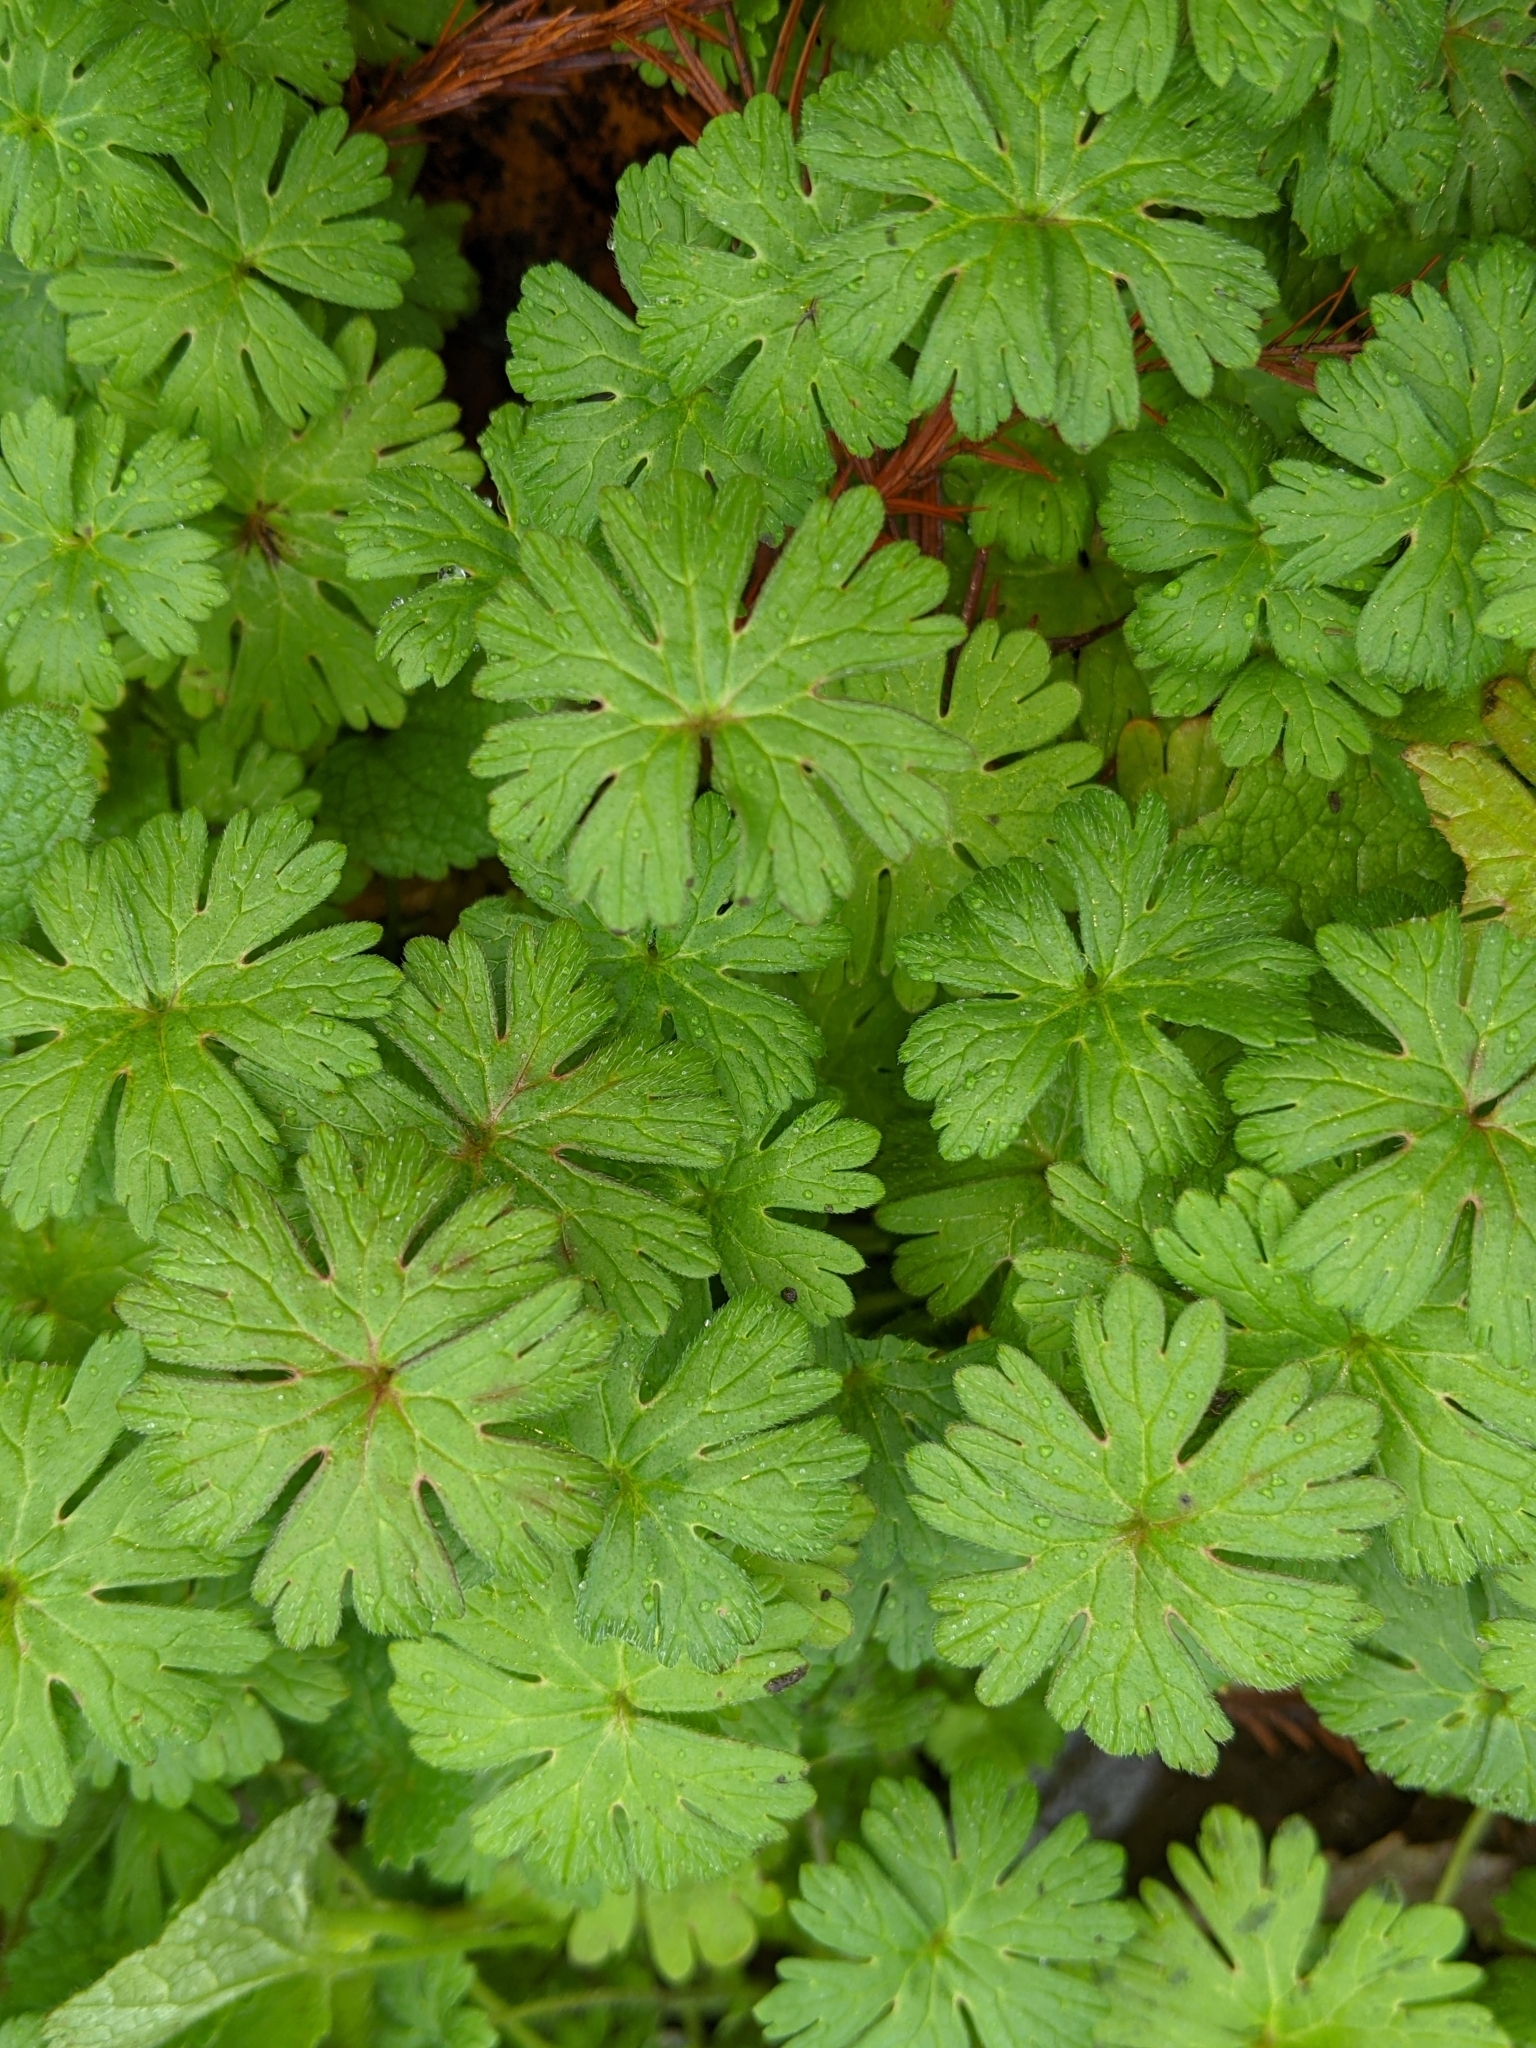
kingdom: Plantae
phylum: Tracheophyta
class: Magnoliopsida
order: Geraniales
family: Geraniaceae
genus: Geranium
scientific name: Geranium molle
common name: Dove's-foot crane's-bill
